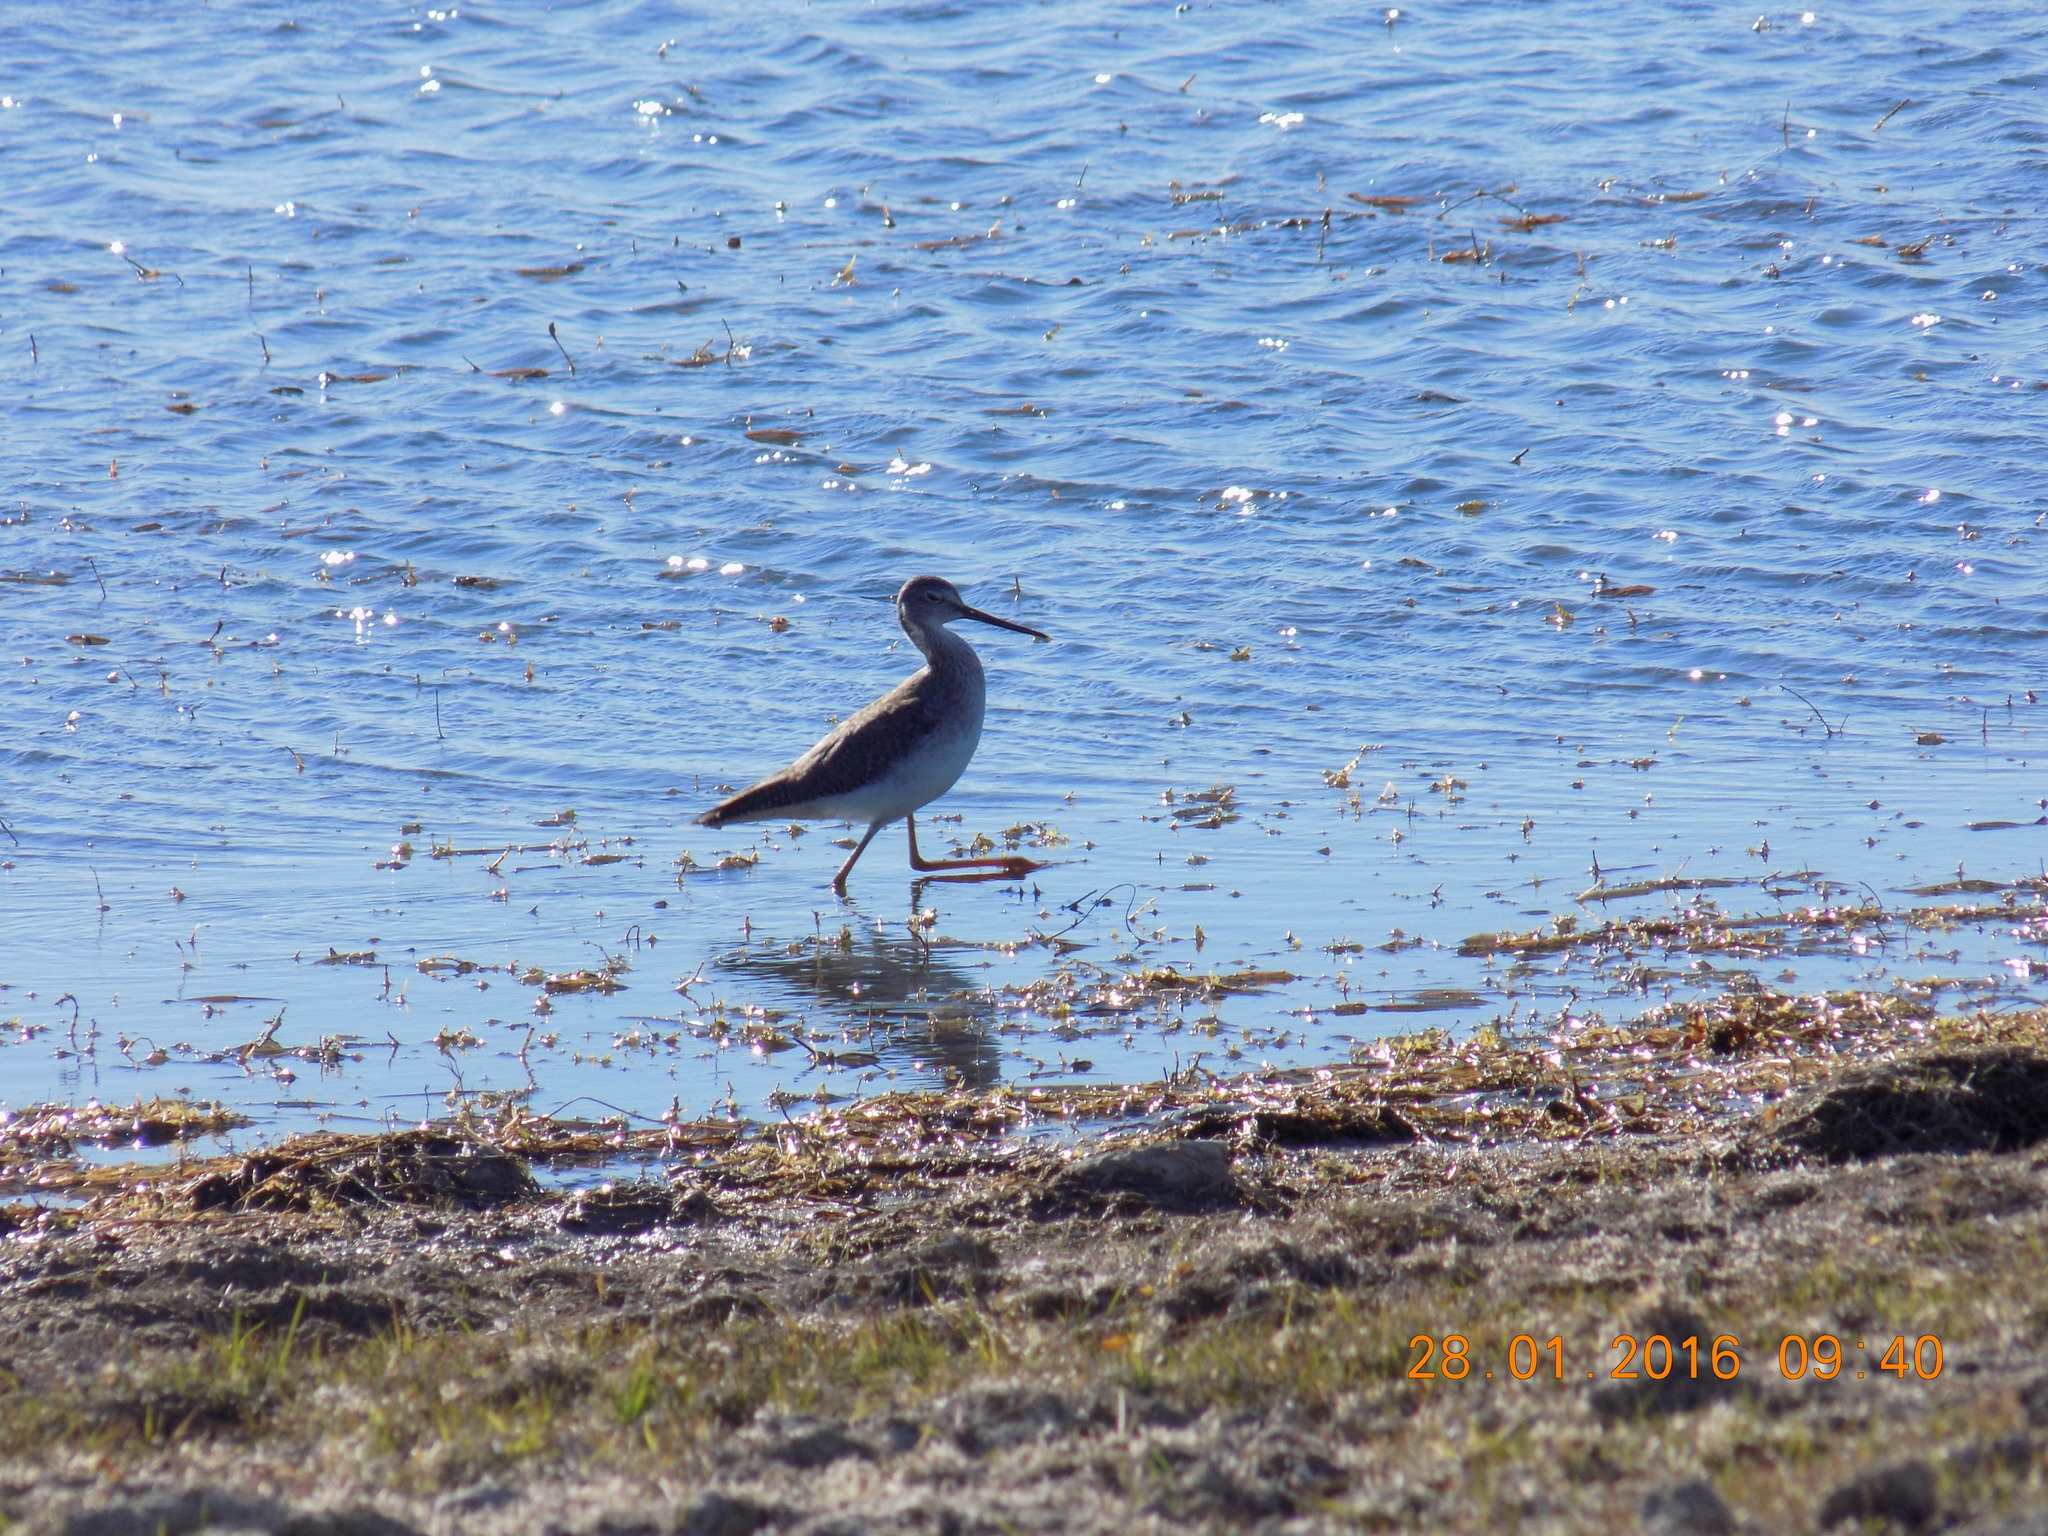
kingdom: Animalia
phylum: Chordata
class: Aves
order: Charadriiformes
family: Scolopacidae
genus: Tringa
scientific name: Tringa melanoleuca
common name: Greater yellowlegs
